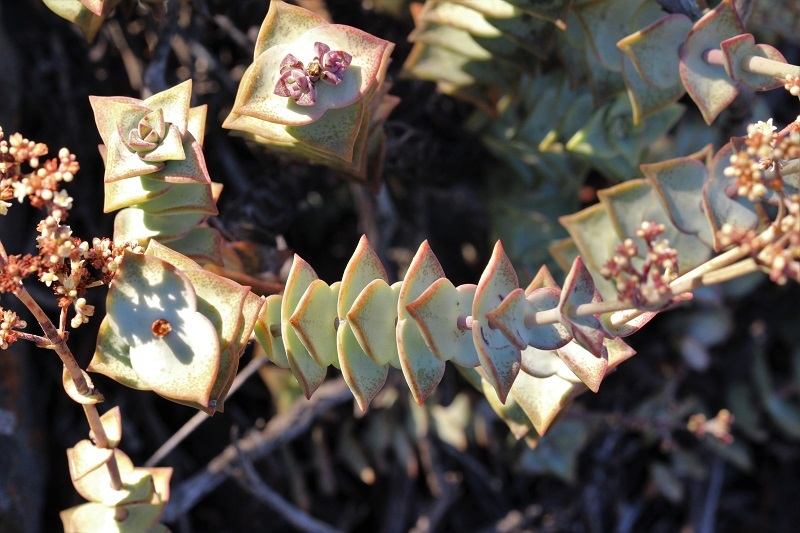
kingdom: Plantae
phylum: Tracheophyta
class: Magnoliopsida
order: Saxifragales
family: Crassulaceae
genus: Crassula
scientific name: Crassula perforata
